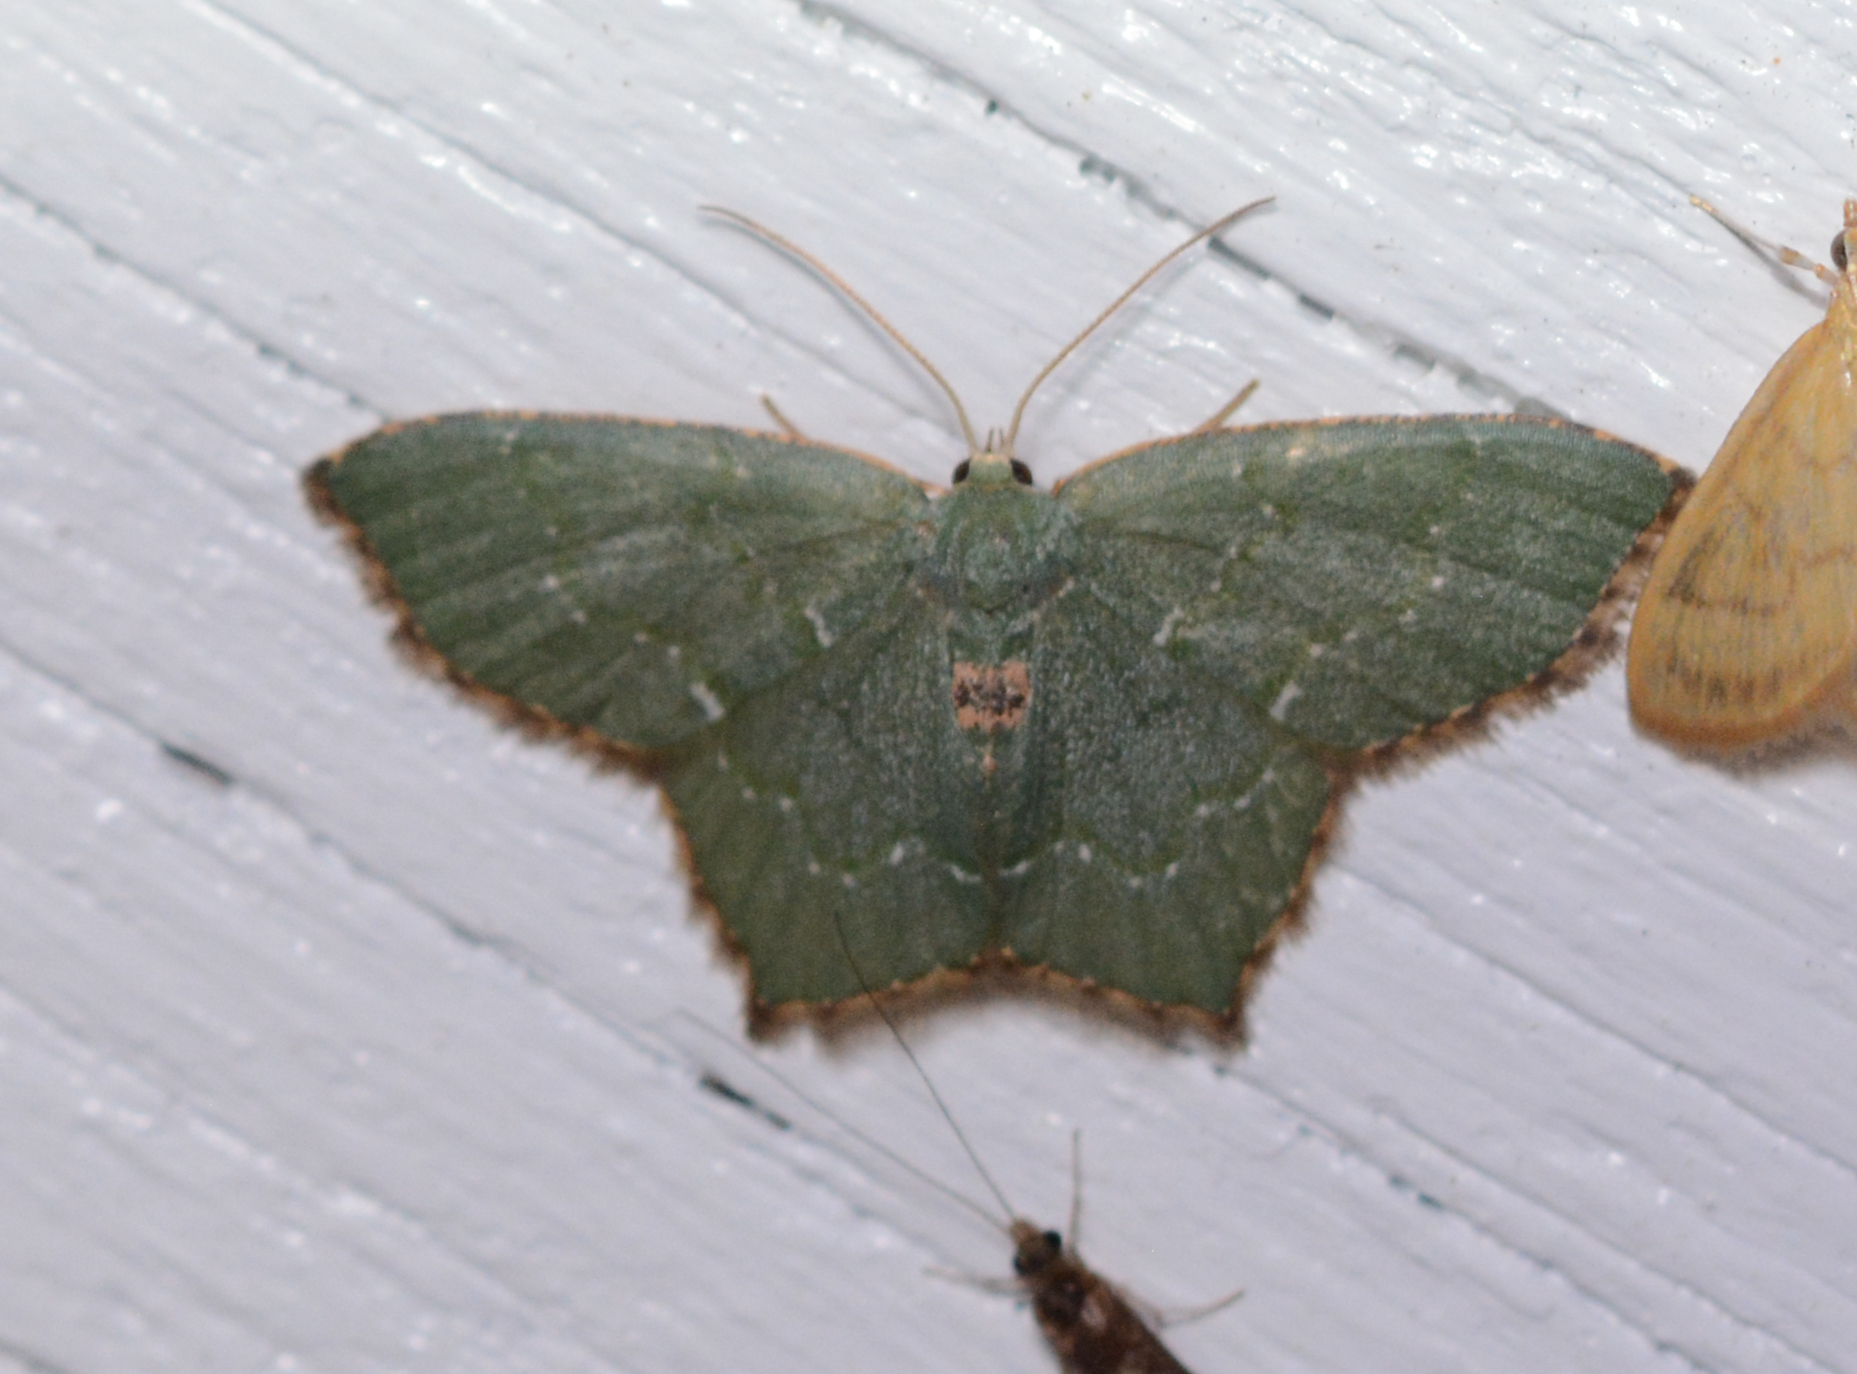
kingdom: Animalia
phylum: Arthropoda
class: Insecta
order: Lepidoptera
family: Geometridae
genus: Chloropteryx
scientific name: Chloropteryx tepperaria
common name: Angle winged emerald moth
